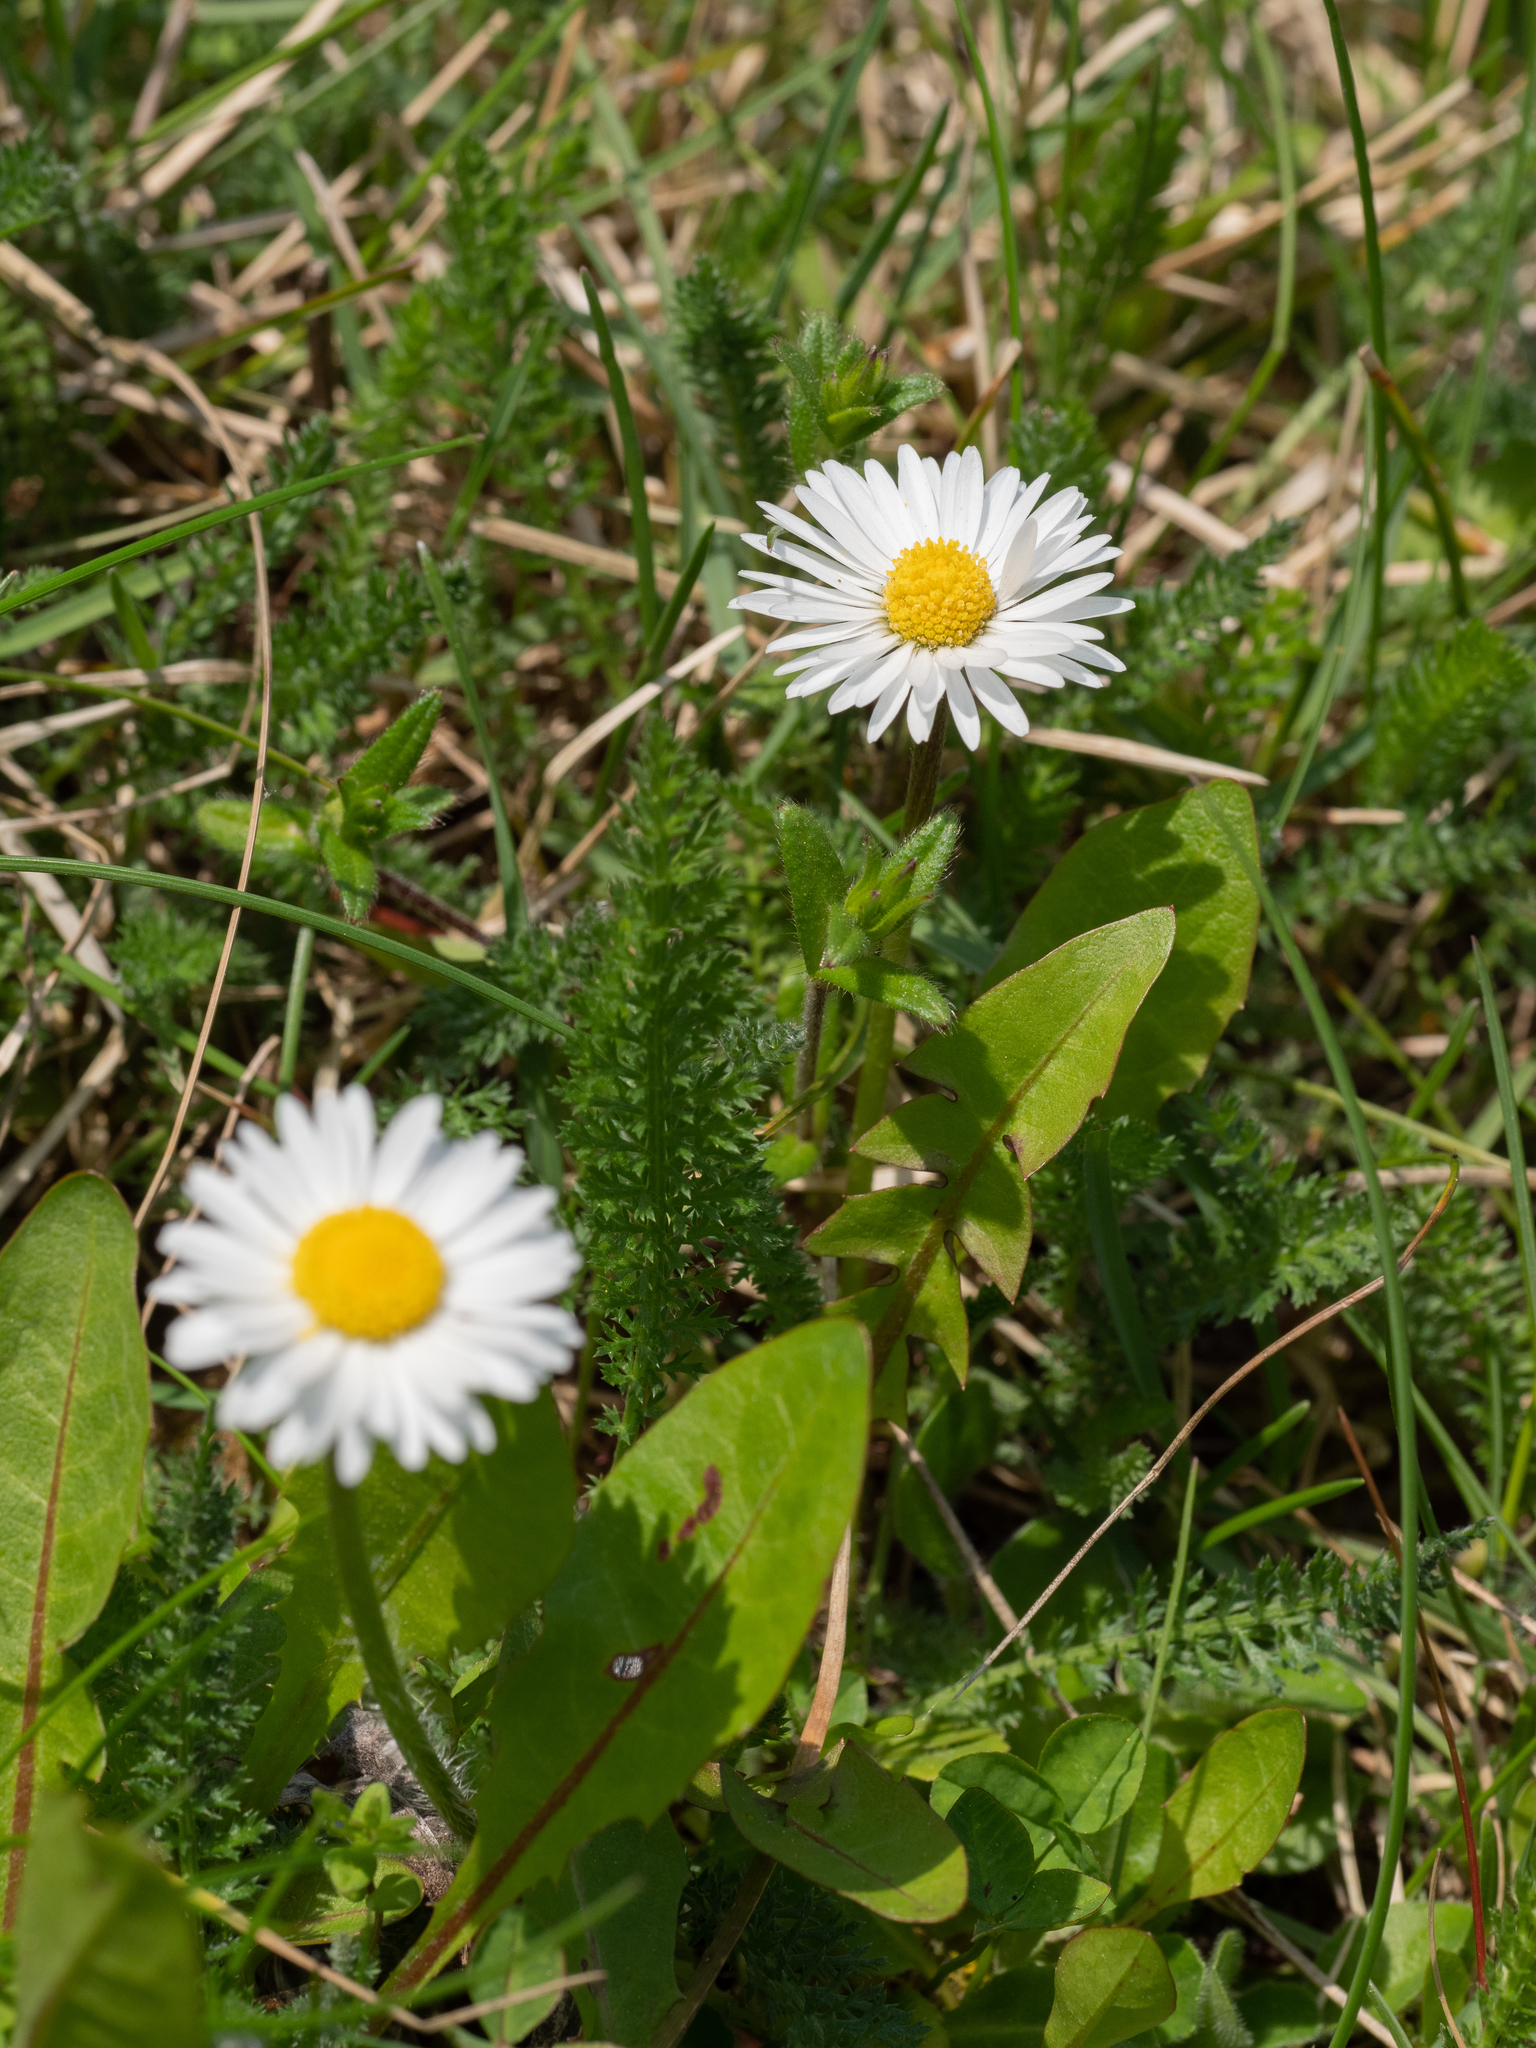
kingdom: Plantae
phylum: Tracheophyta
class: Magnoliopsida
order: Asterales
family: Asteraceae
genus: Bellis
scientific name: Bellis perennis
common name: Lawndaisy
